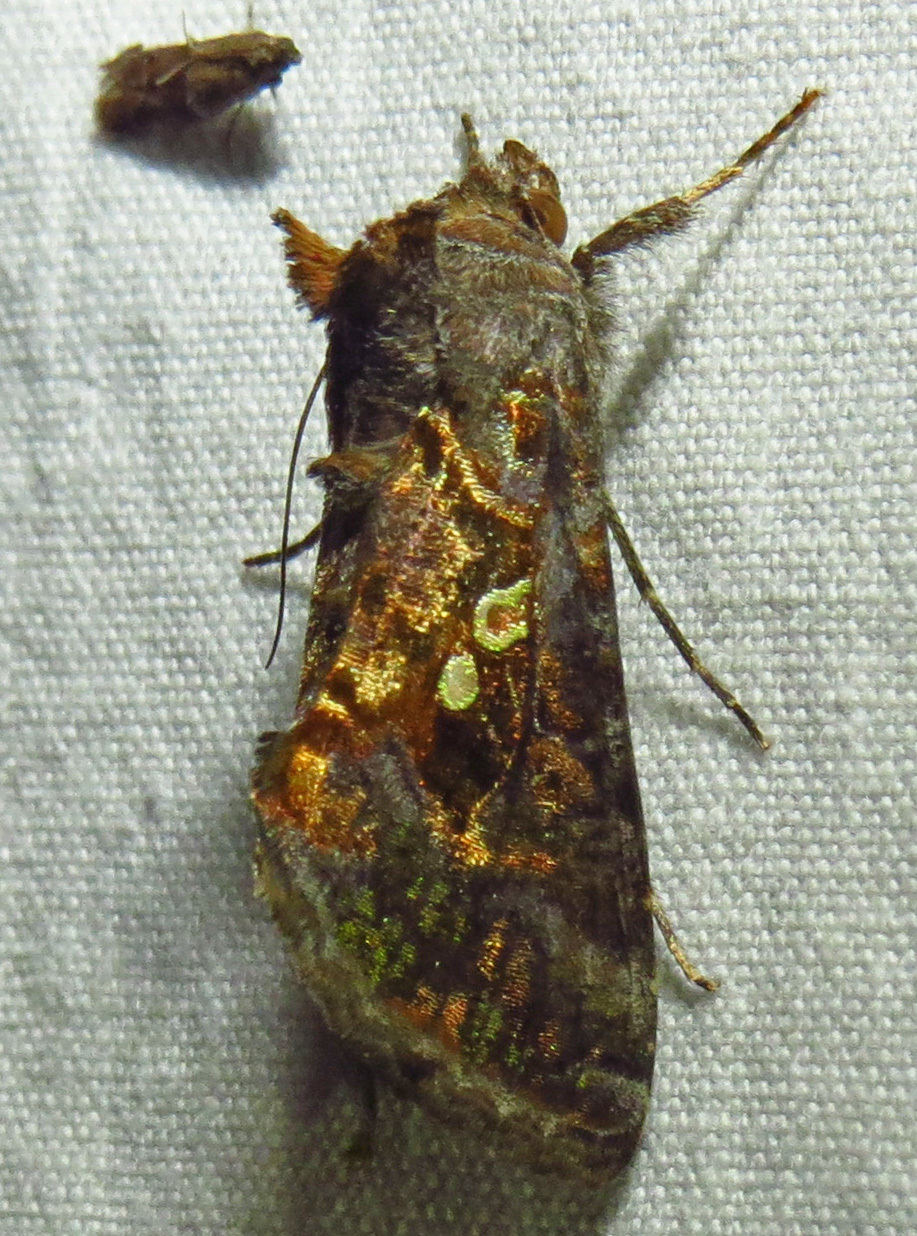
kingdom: Animalia
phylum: Arthropoda
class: Insecta
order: Lepidoptera
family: Noctuidae
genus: Chrysodeixis
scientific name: Chrysodeixis includens
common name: Cutworm moth
